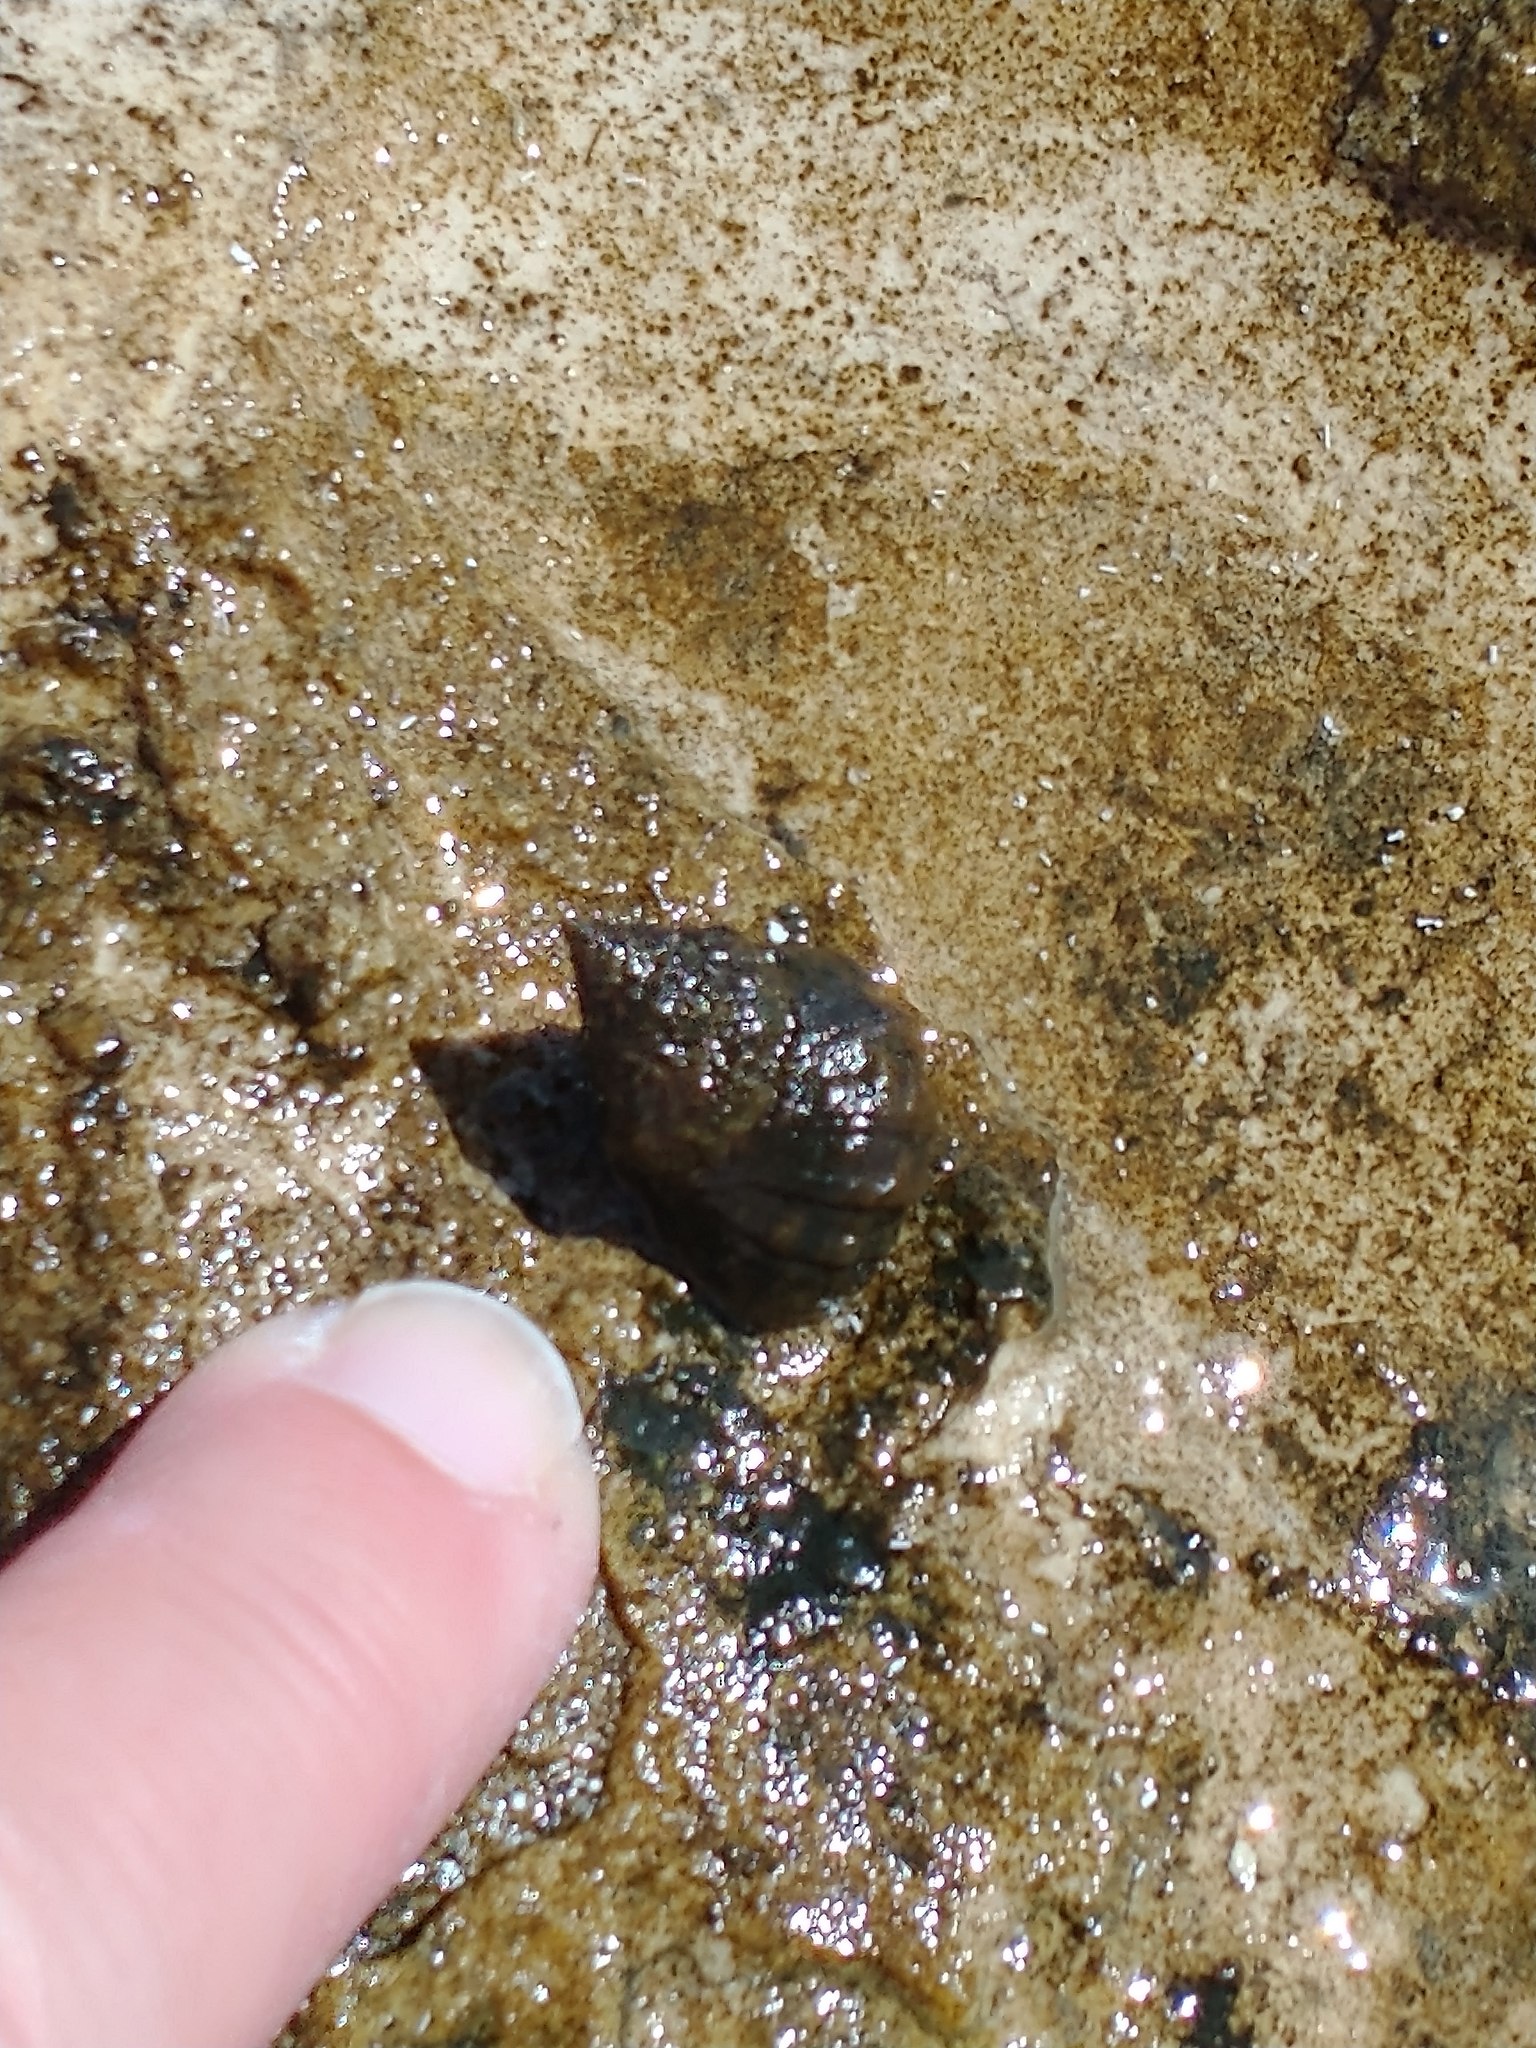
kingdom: Animalia
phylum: Mollusca
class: Gastropoda
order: Littorinimorpha
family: Littorinidae
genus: Echinolittorina
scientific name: Echinolittorina tuberculata
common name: Common periwinkle
